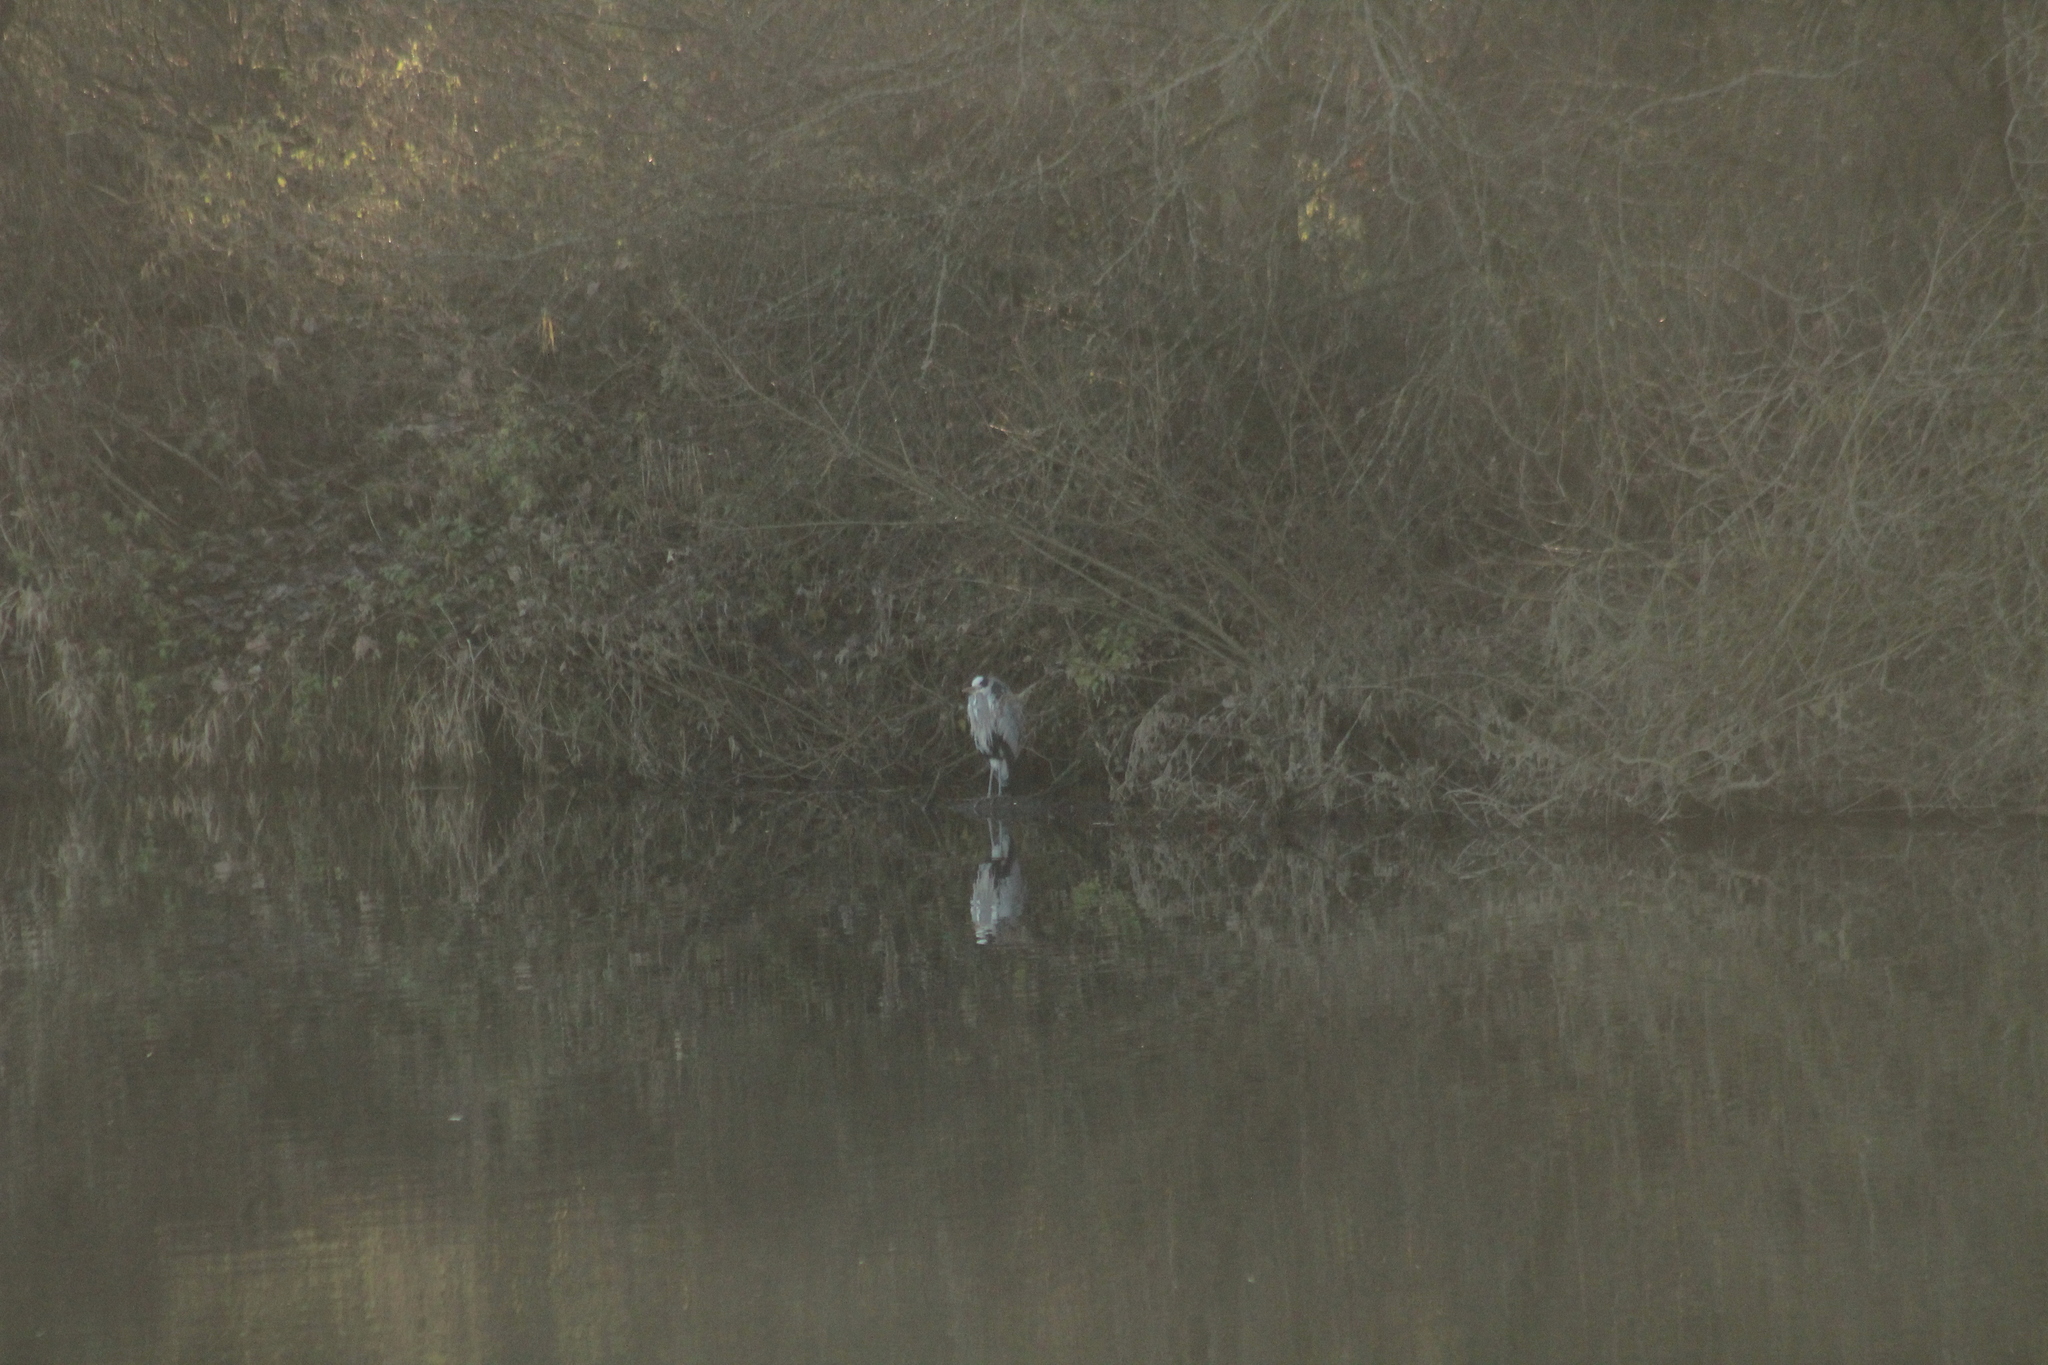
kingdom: Animalia
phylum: Chordata
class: Aves
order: Pelecaniformes
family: Ardeidae
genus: Ardea
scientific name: Ardea cinerea
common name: Grey heron
